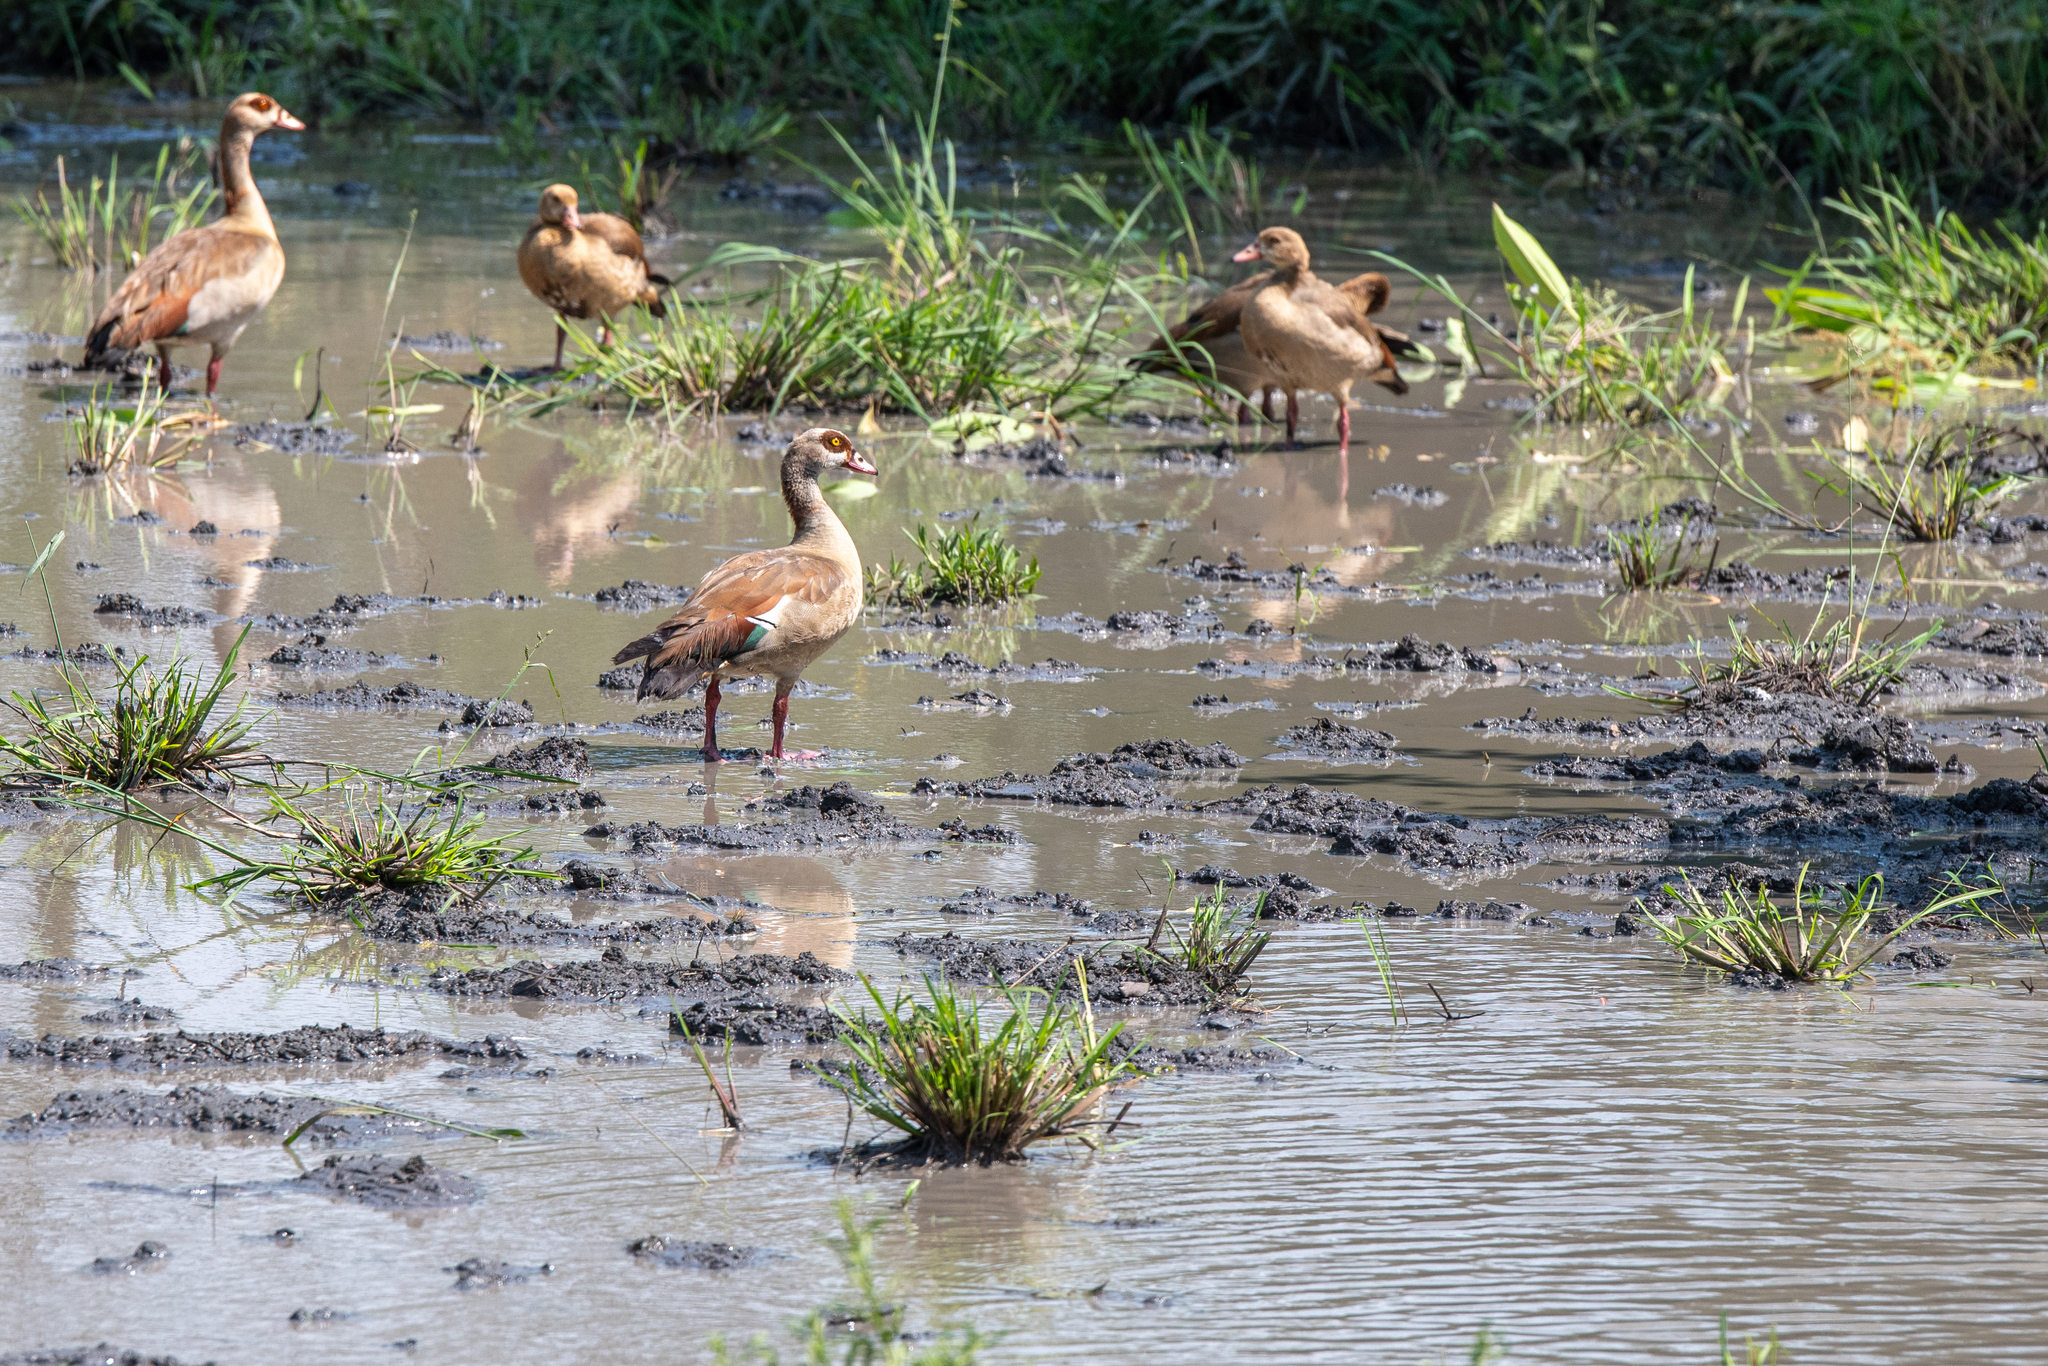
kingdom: Animalia
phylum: Chordata
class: Aves
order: Anseriformes
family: Anatidae
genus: Alopochen
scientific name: Alopochen aegyptiaca
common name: Egyptian goose
